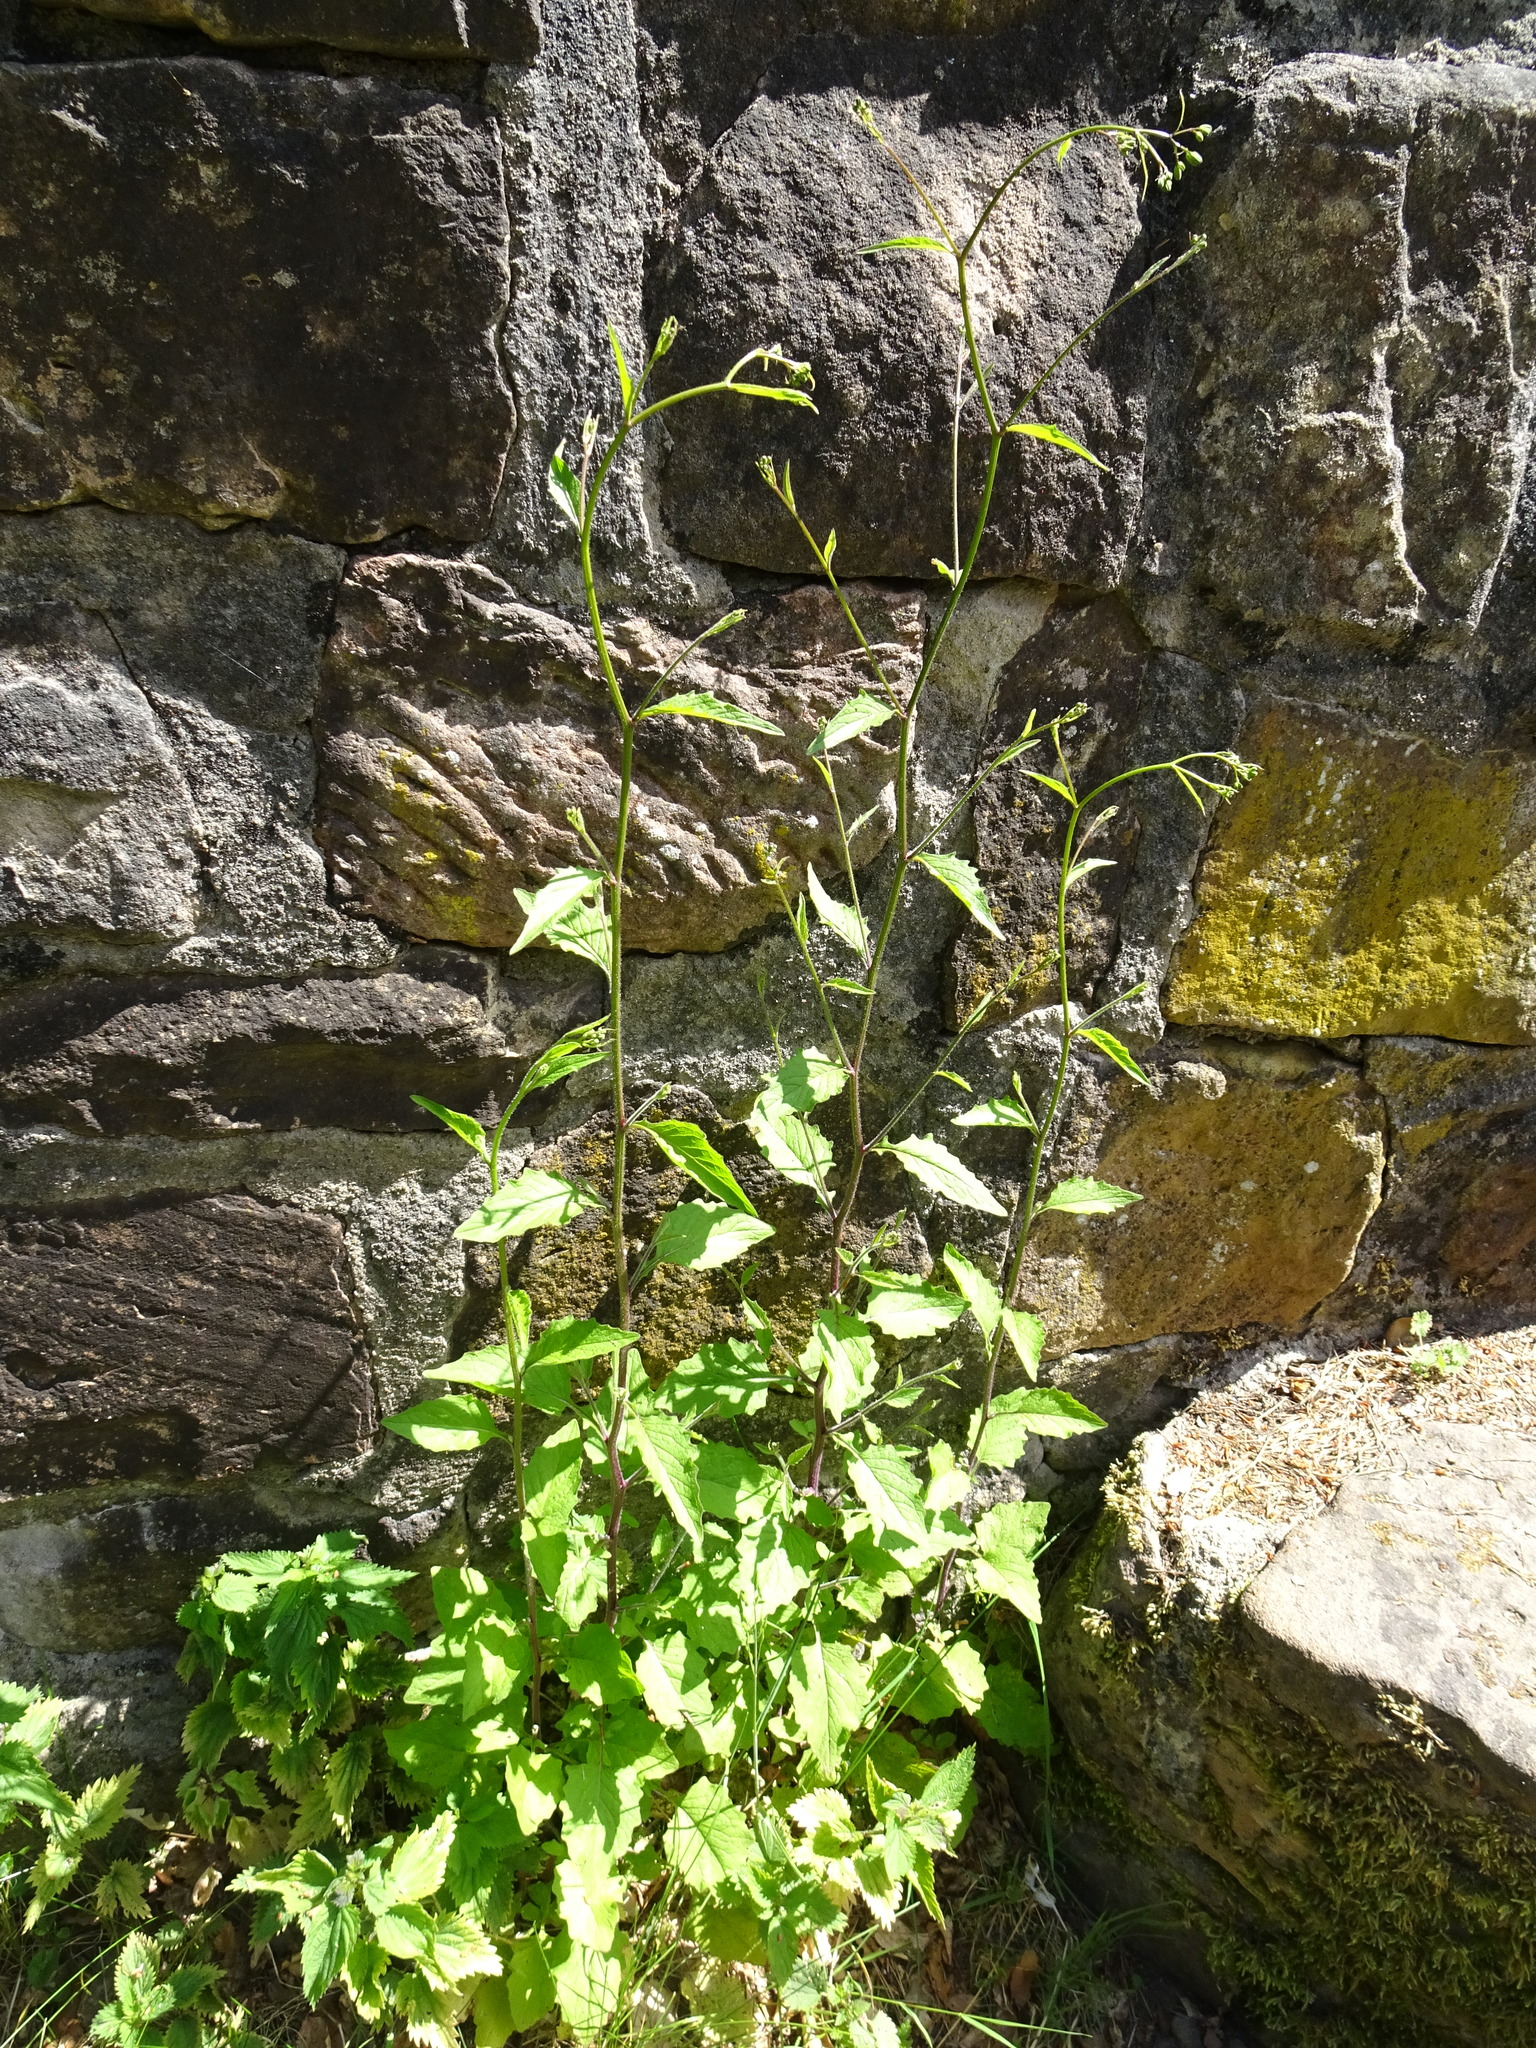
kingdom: Plantae
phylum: Tracheophyta
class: Magnoliopsida
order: Asterales
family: Asteraceae
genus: Lapsana
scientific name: Lapsana communis
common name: Nipplewort
